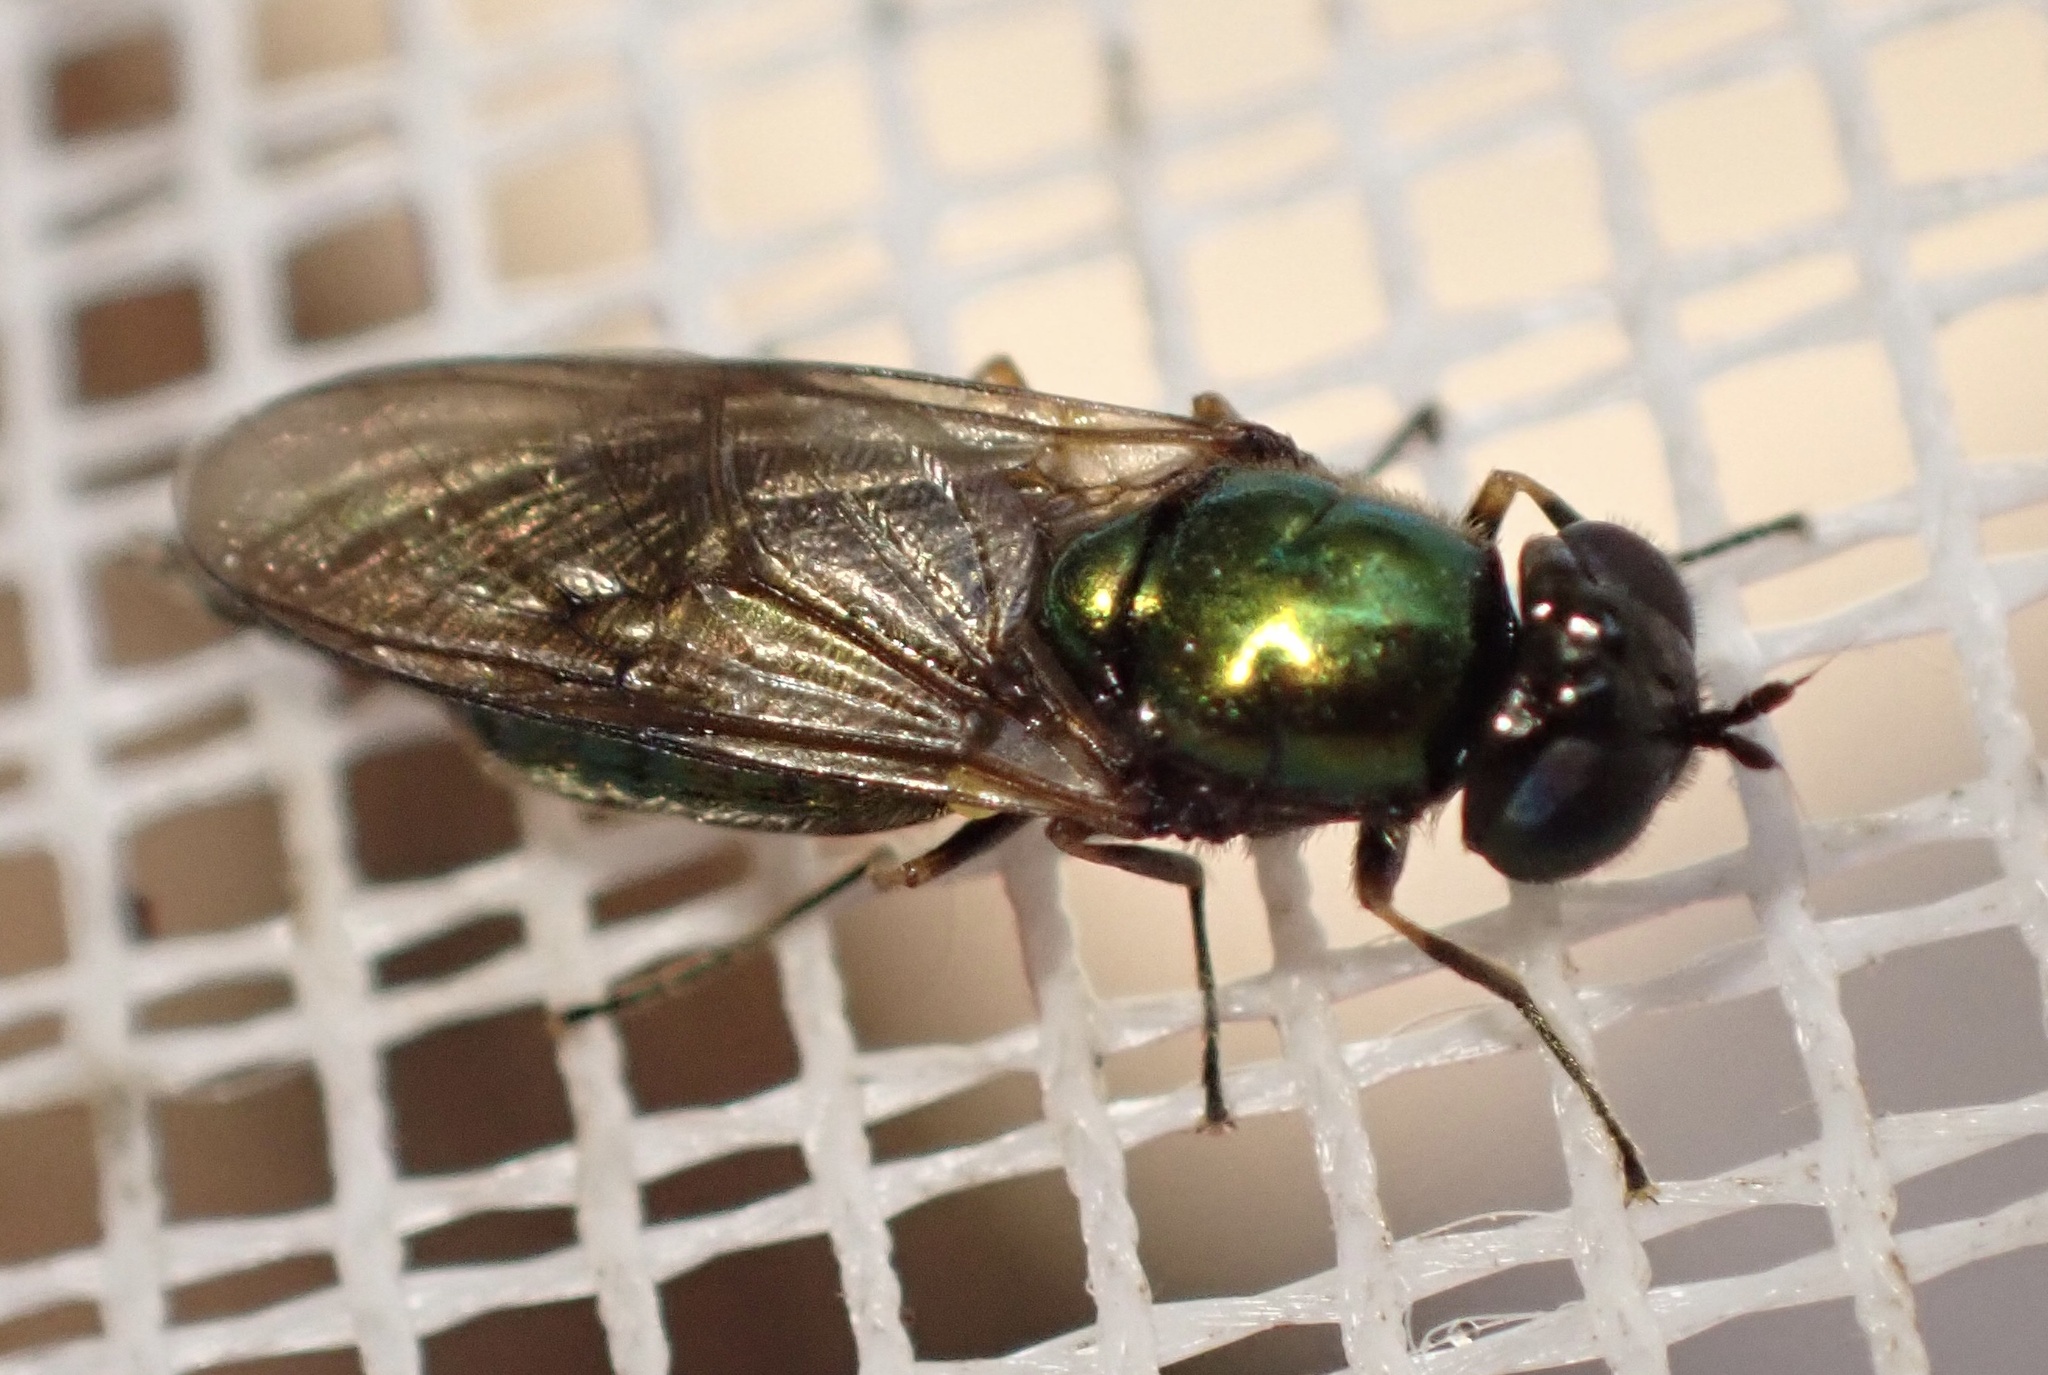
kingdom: Animalia
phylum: Arthropoda
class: Insecta
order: Diptera
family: Stratiomyidae
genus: Chloromyia
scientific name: Chloromyia formosa
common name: Soldier fly
